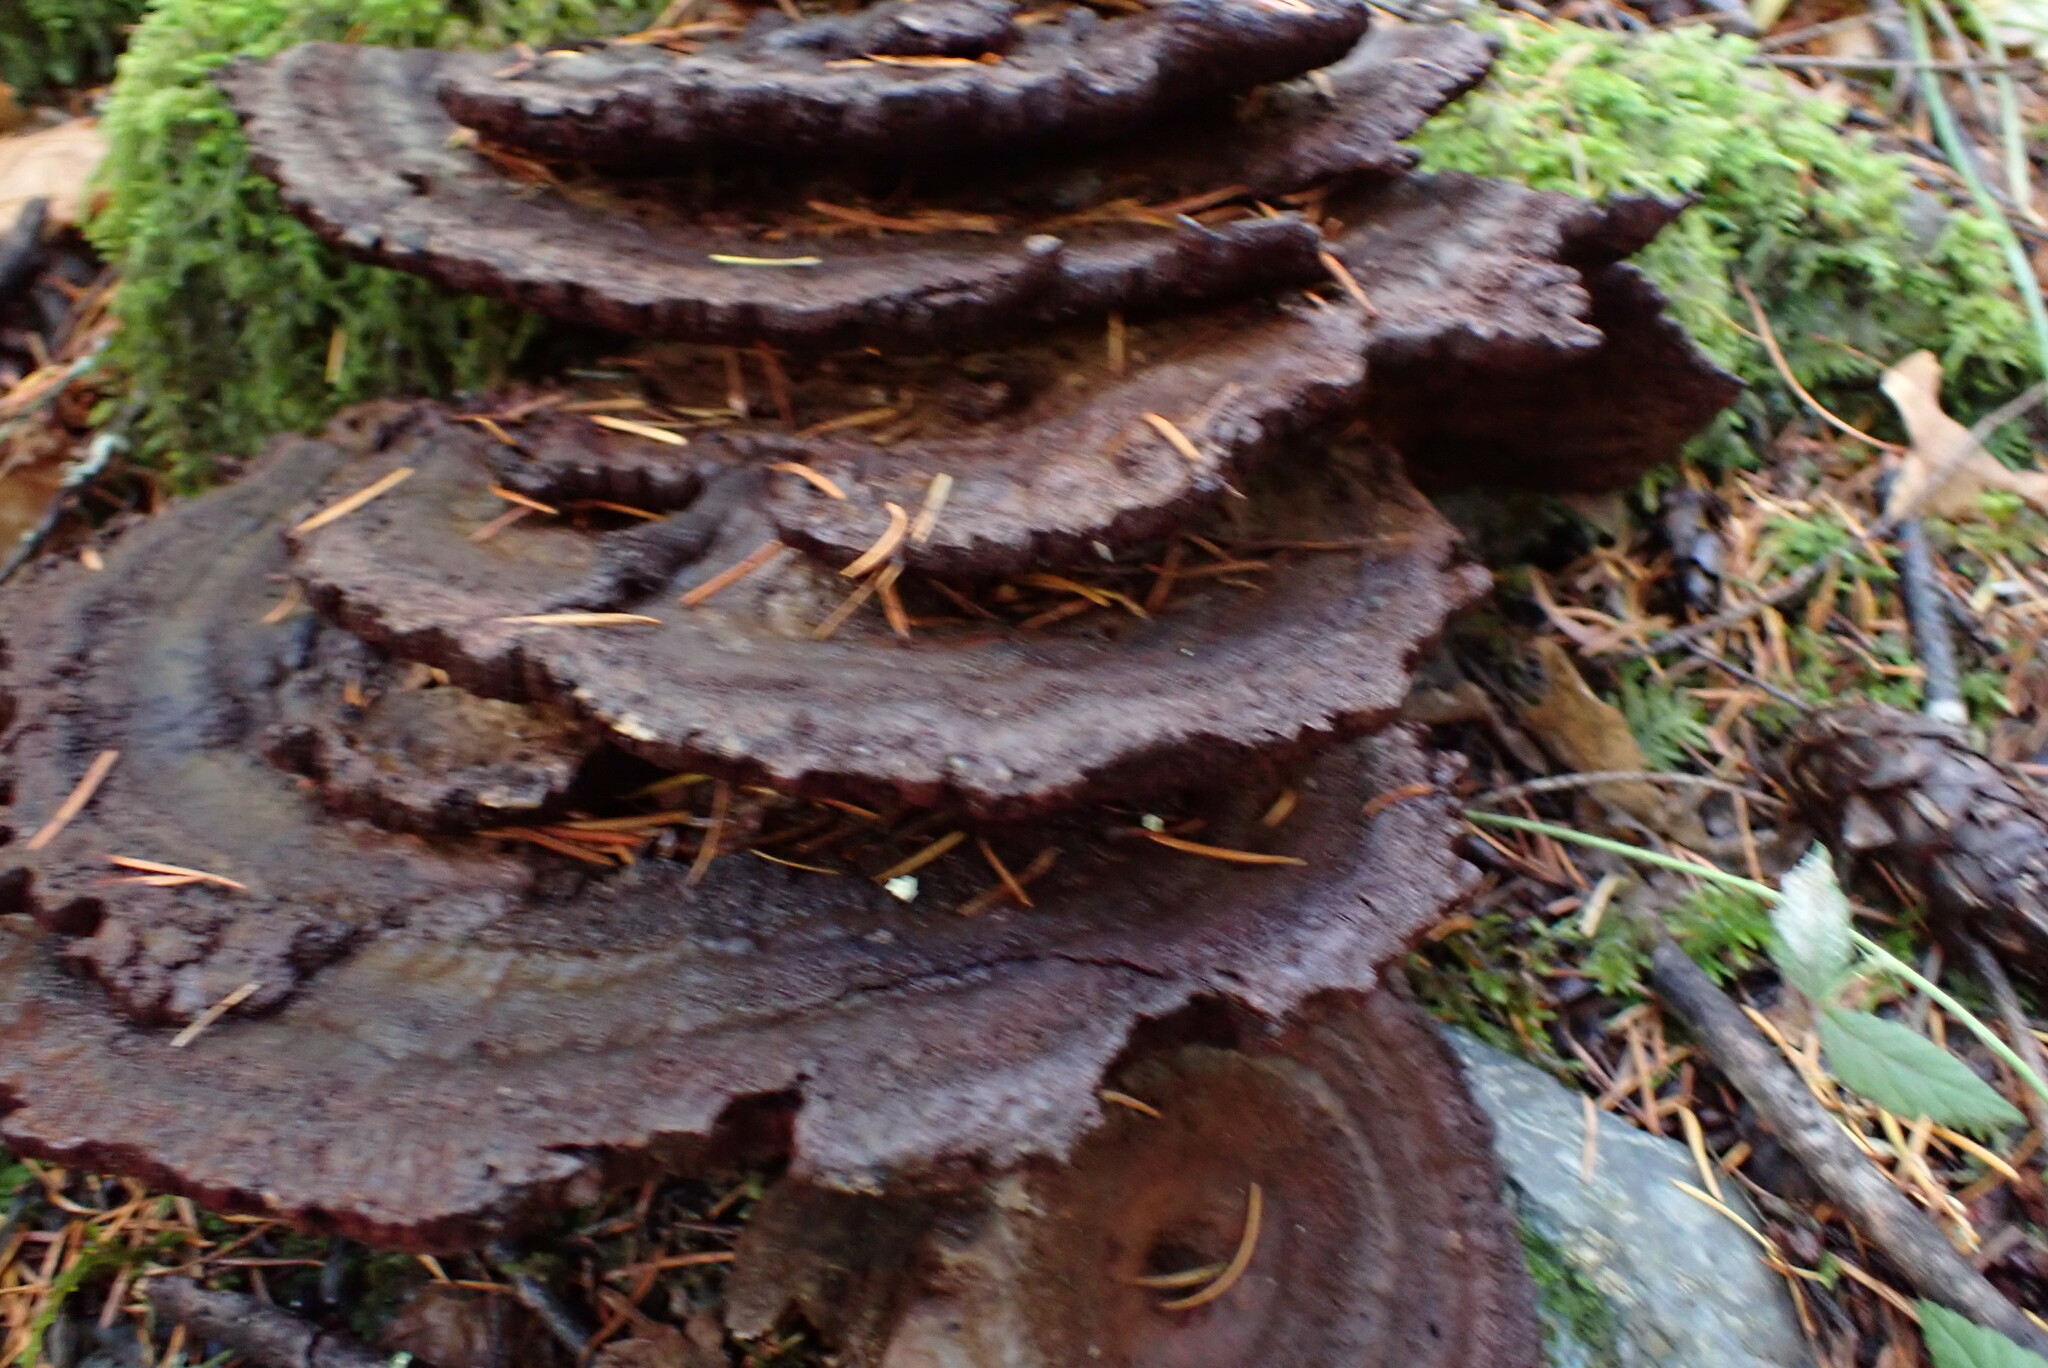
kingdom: Fungi
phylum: Basidiomycota
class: Agaricomycetes
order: Polyporales
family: Laetiporaceae
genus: Phaeolus
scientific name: Phaeolus schweinitzii
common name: Dyer's mazegill
